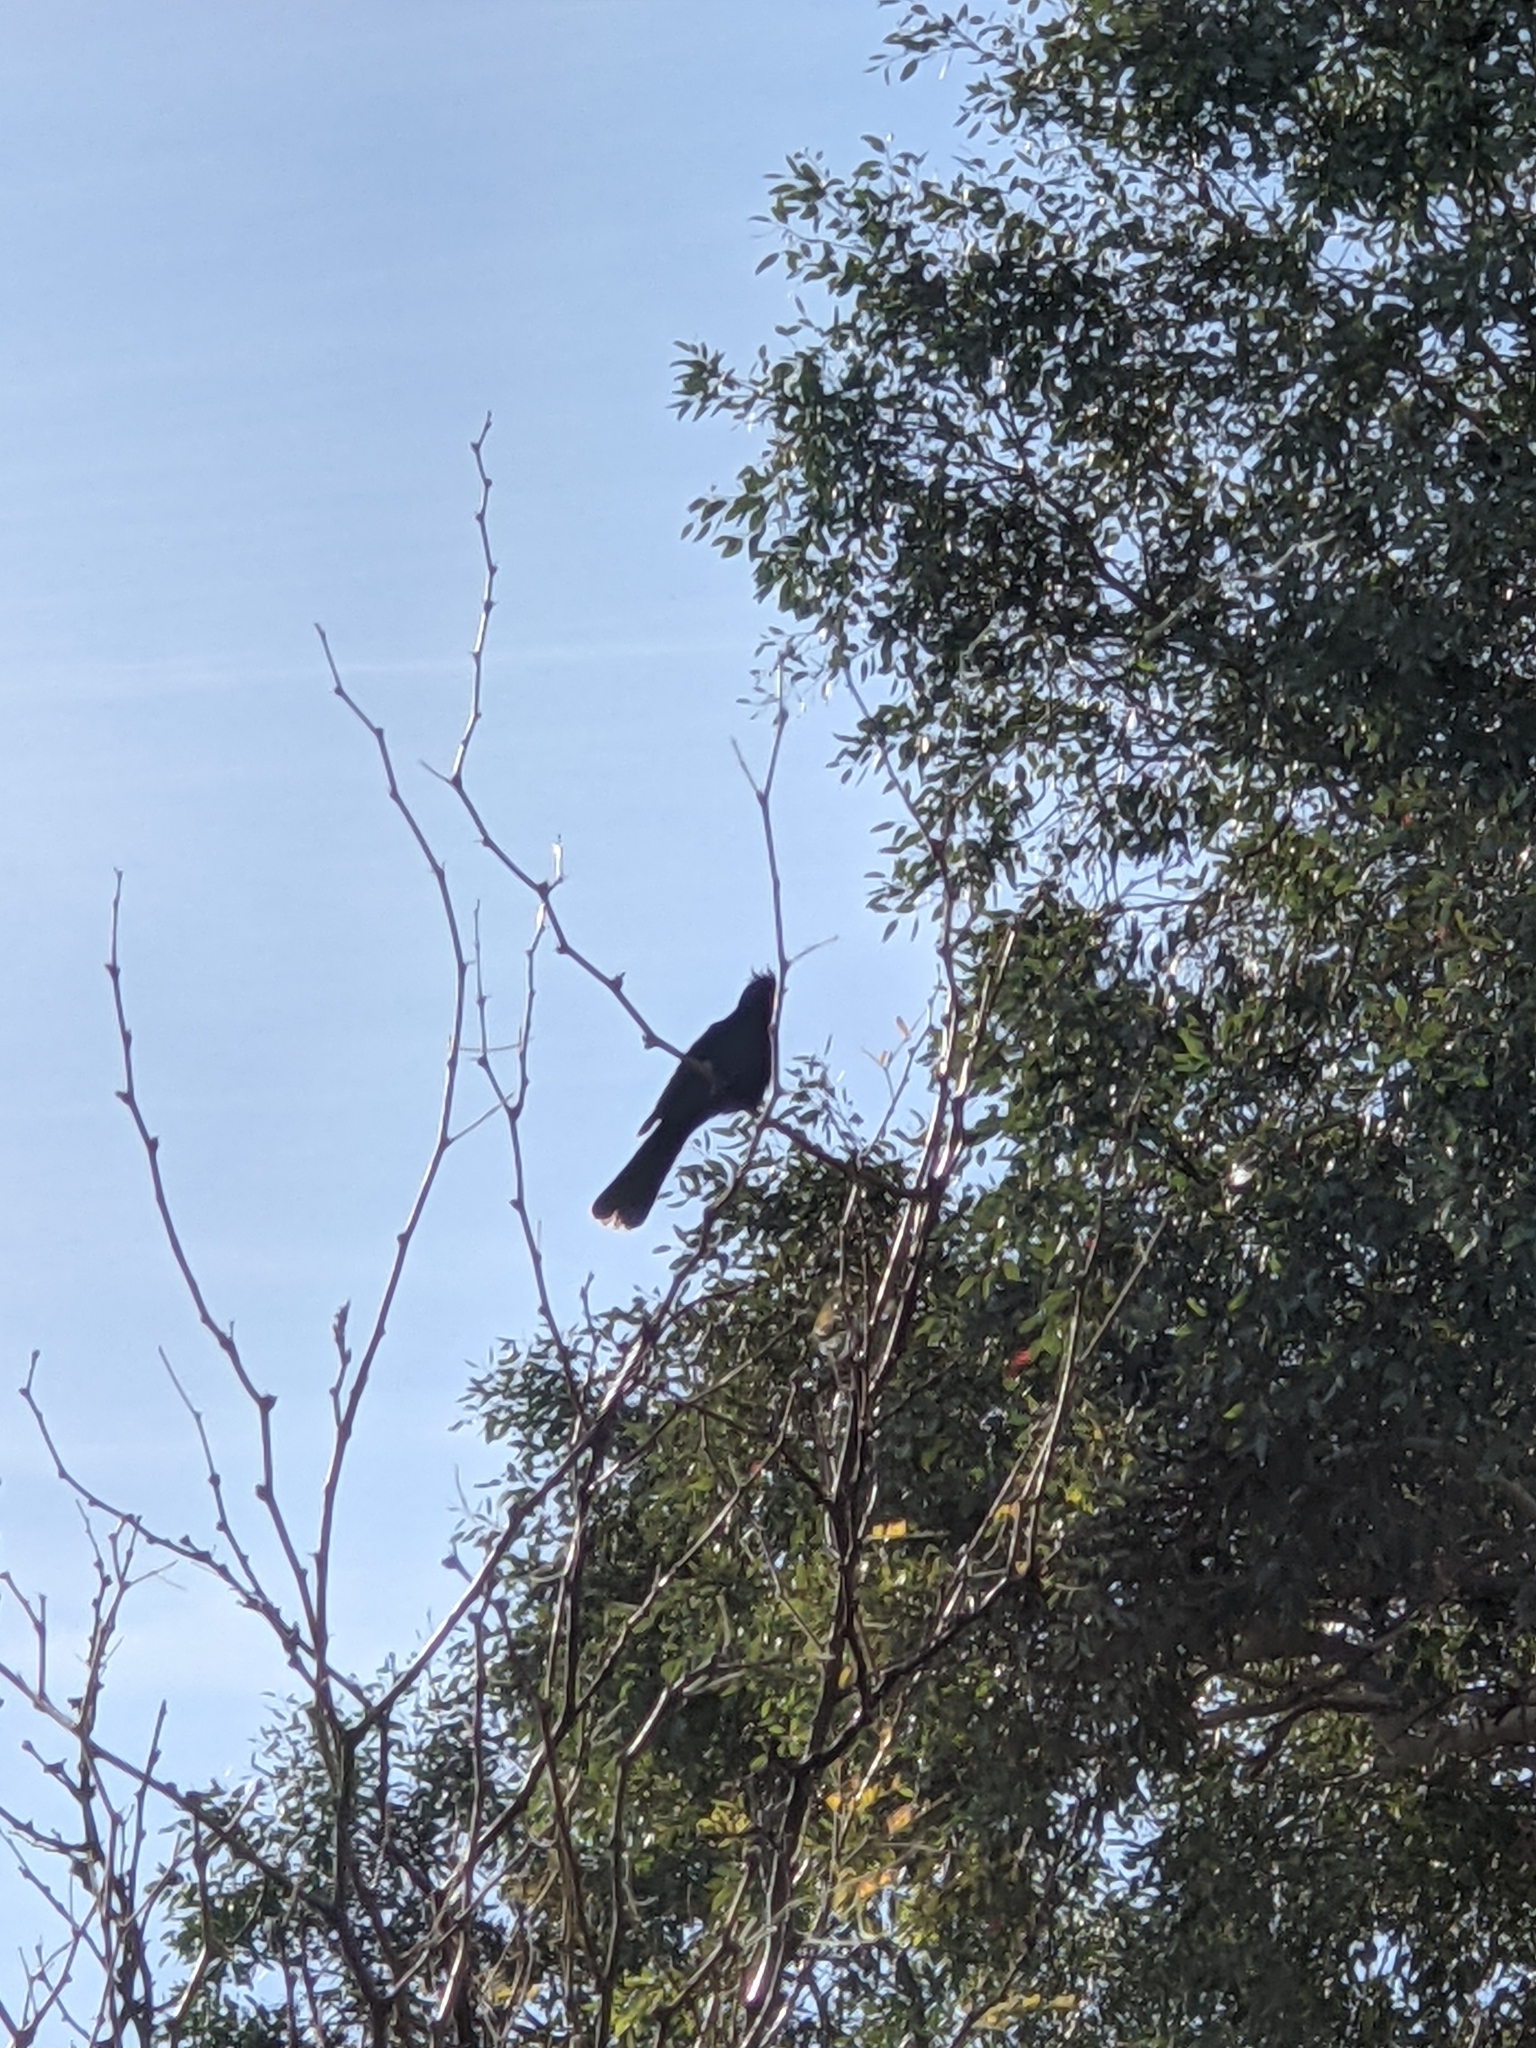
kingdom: Animalia
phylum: Chordata
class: Aves
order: Passeriformes
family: Ptilogonatidae
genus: Phainopepla
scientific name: Phainopepla nitens
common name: Phainopepla
